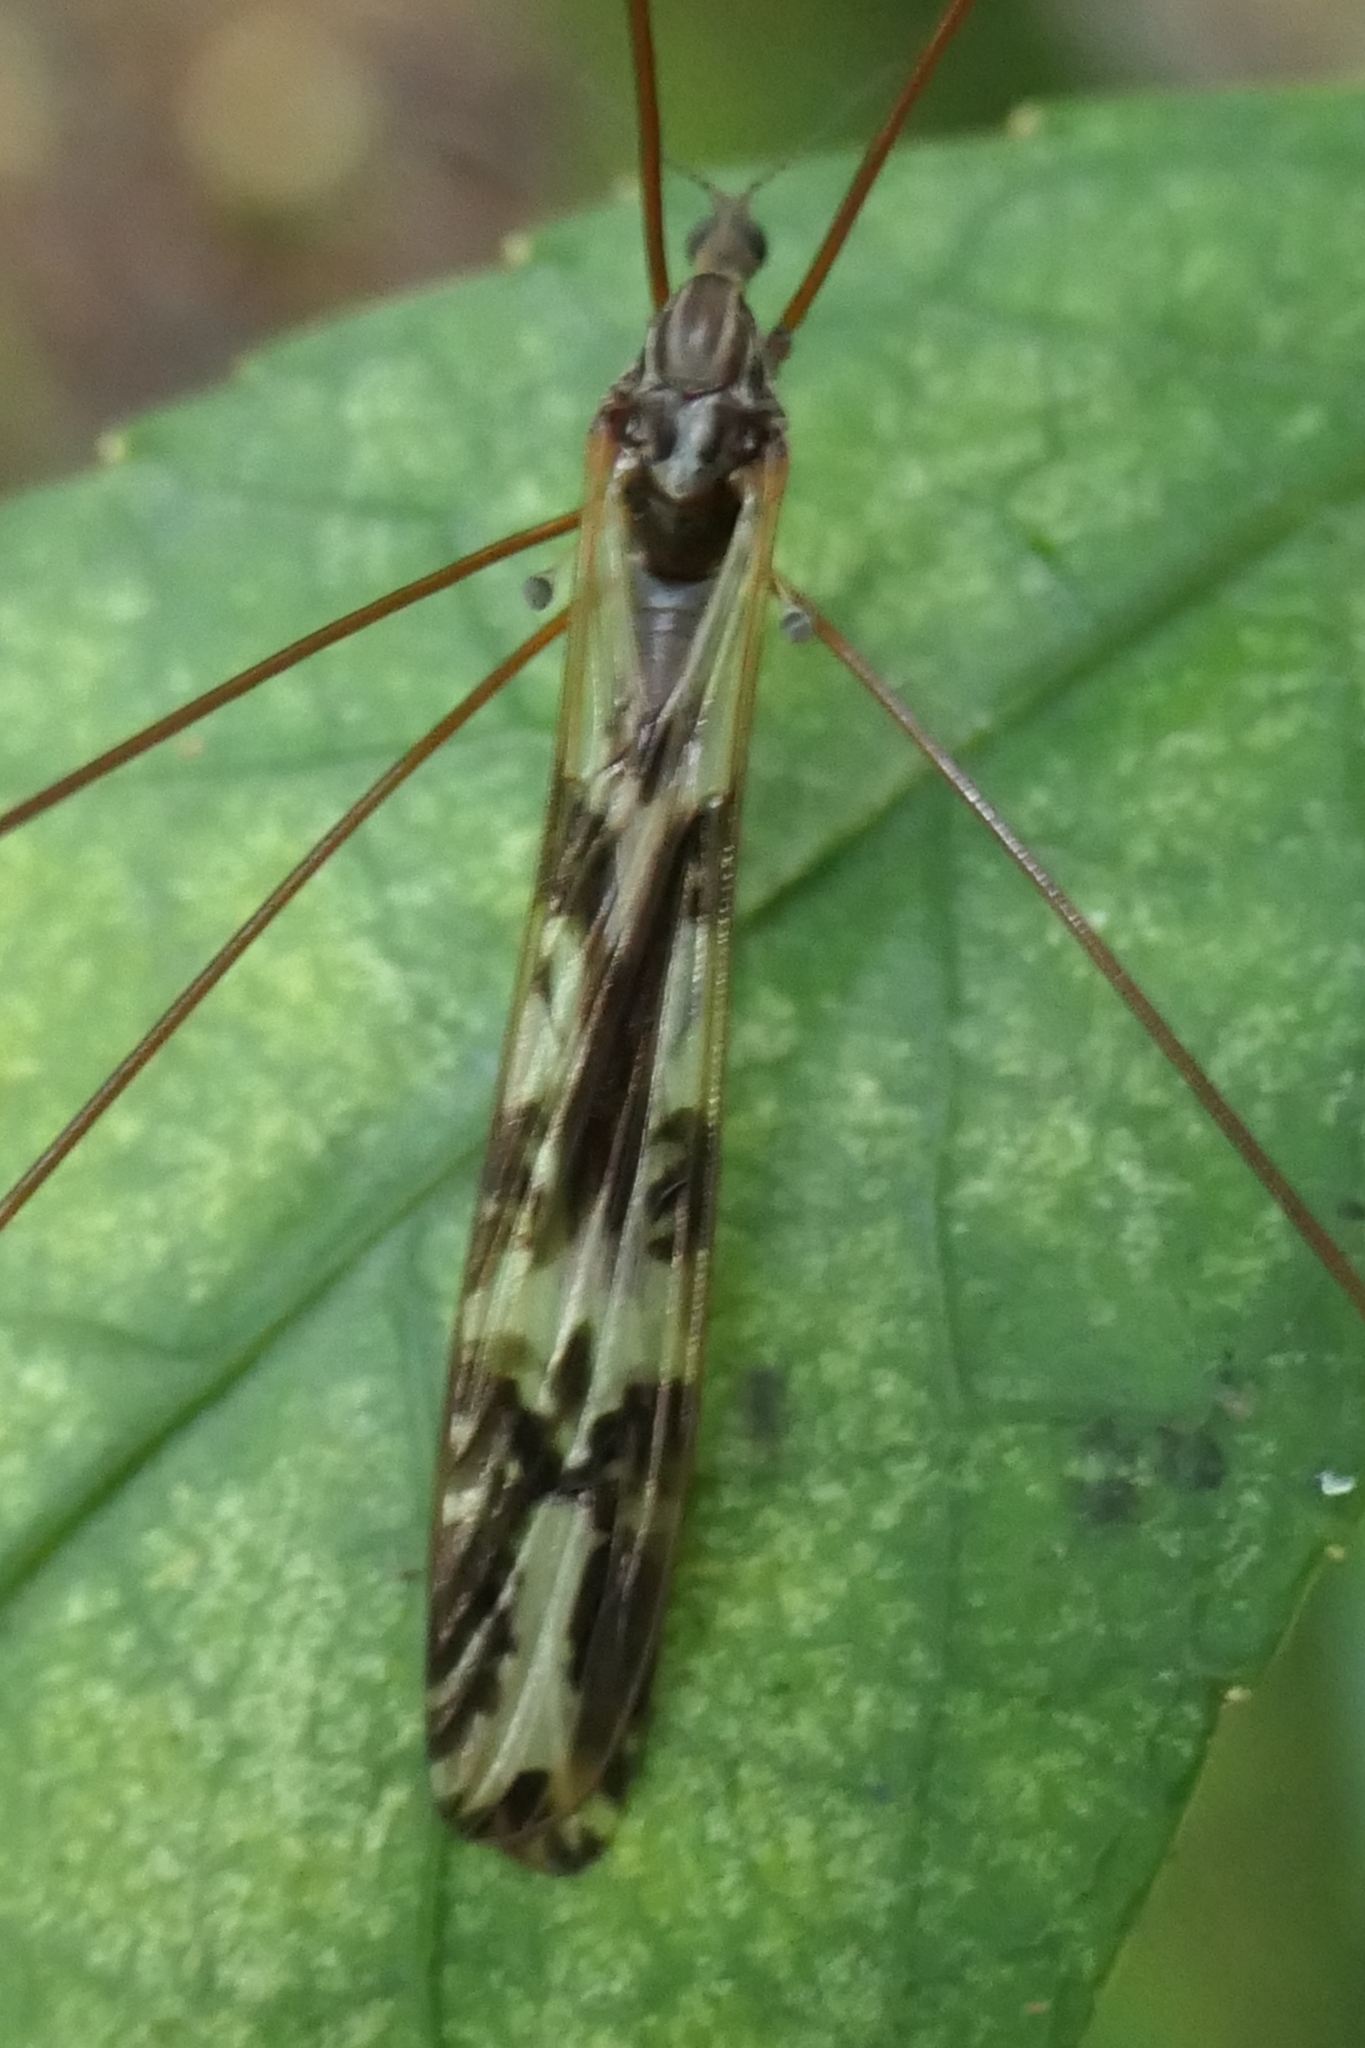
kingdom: Animalia
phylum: Arthropoda
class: Insecta
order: Diptera
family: Limoniidae
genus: Discobola
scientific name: Discobola dohrni
